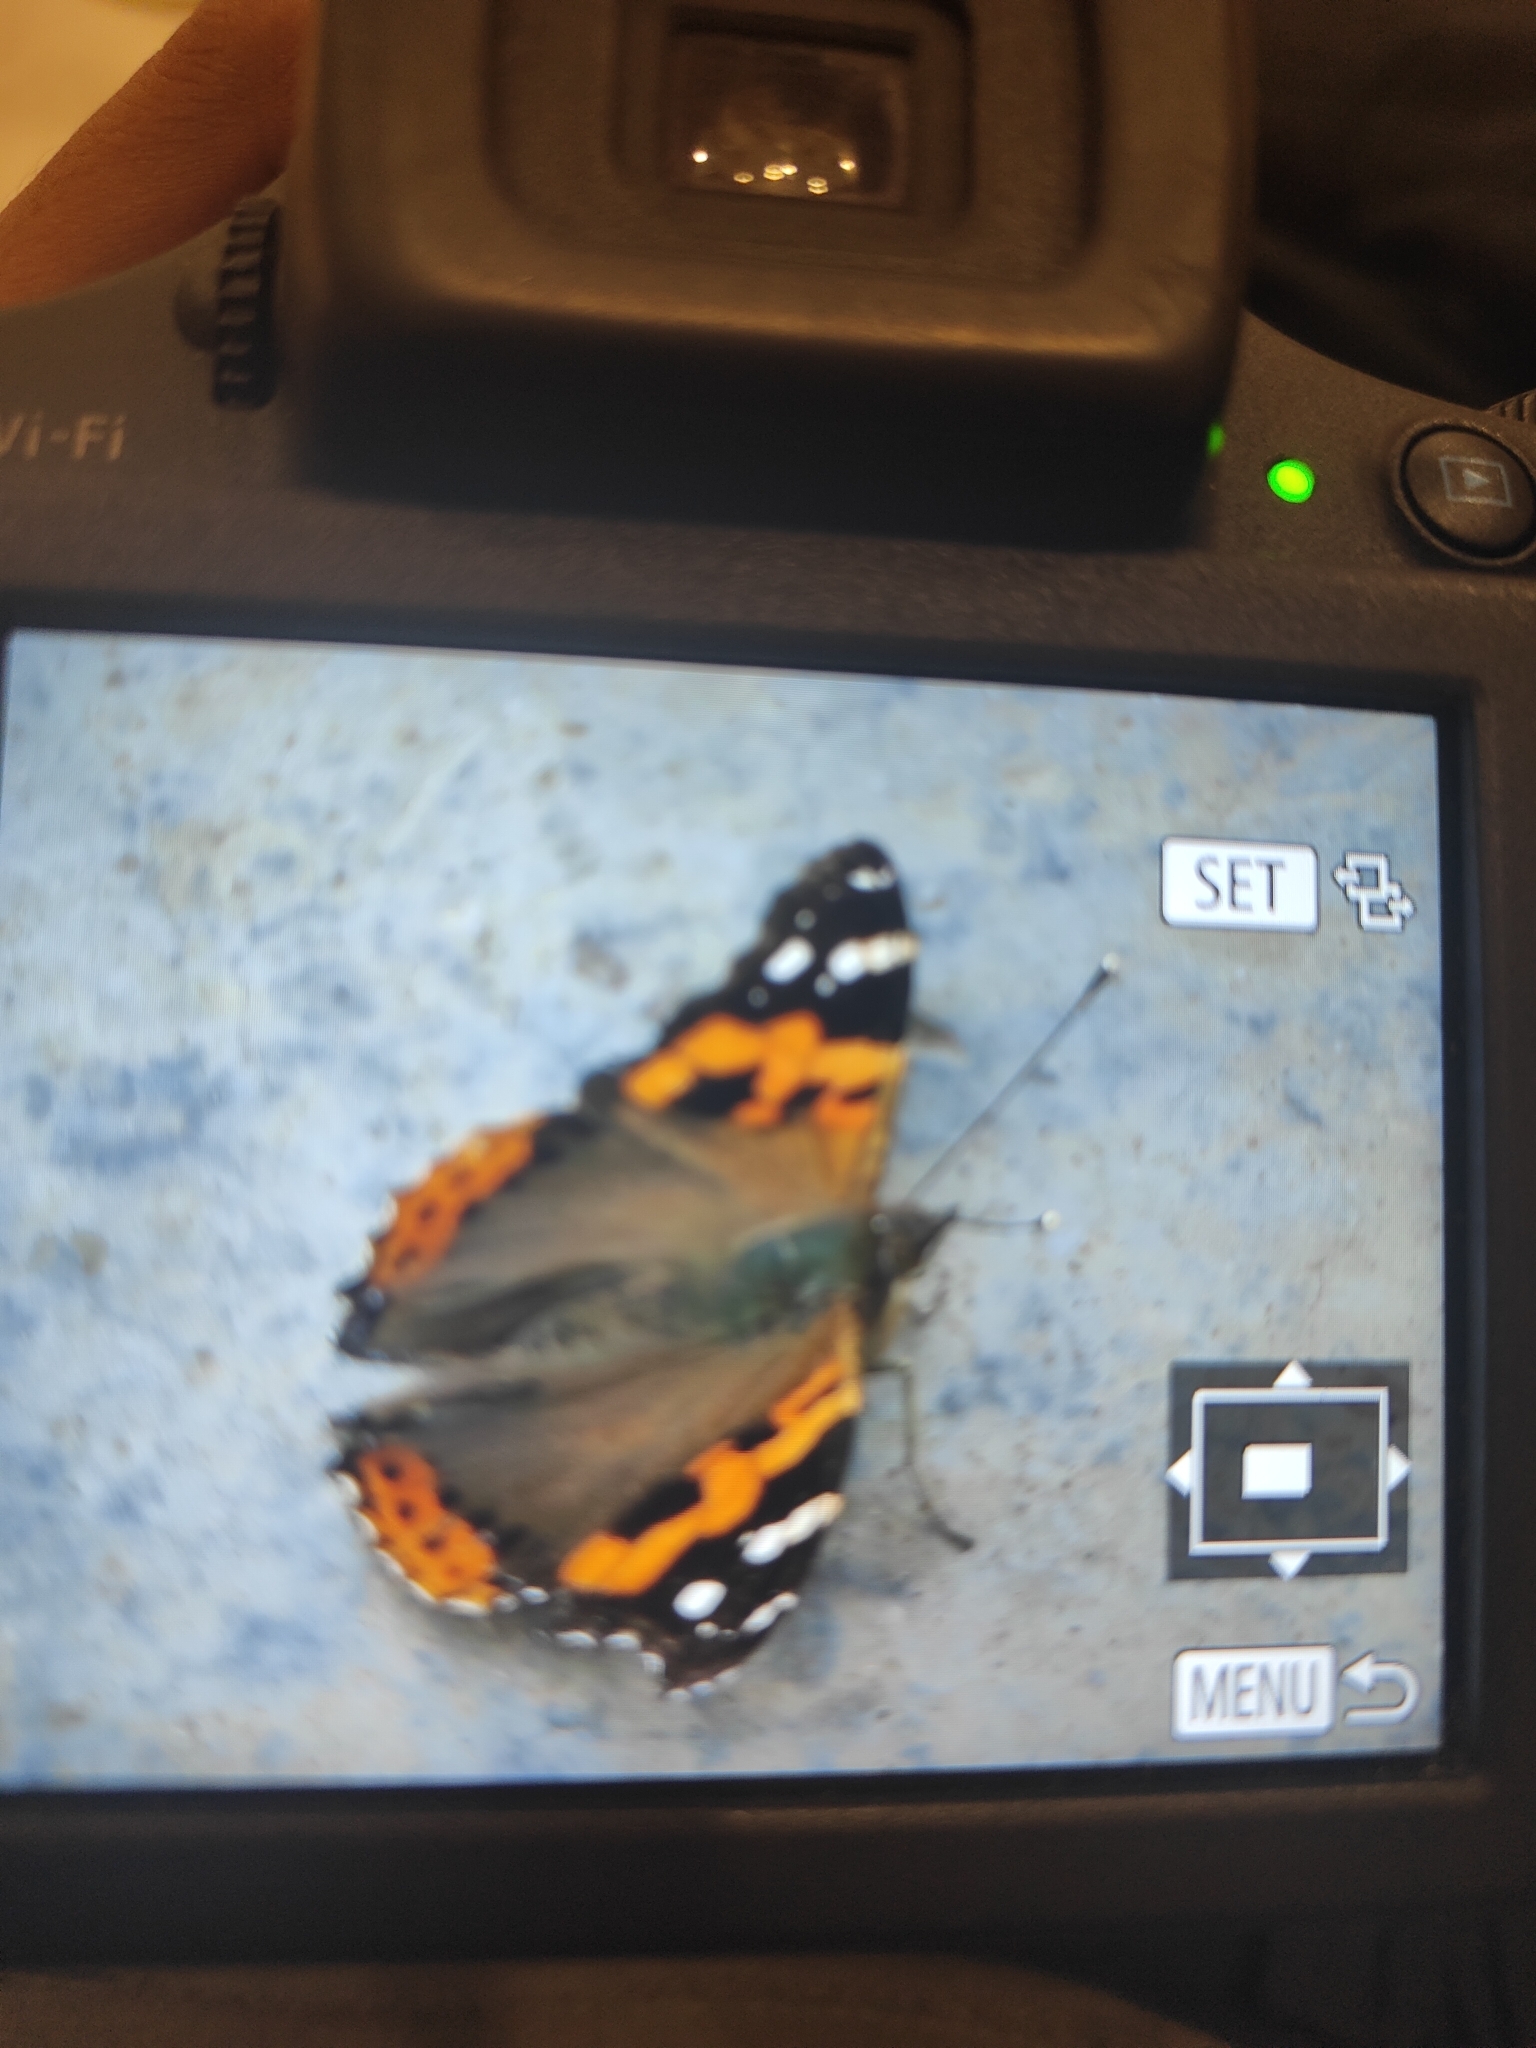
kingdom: Animalia
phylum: Arthropoda
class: Insecta
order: Lepidoptera
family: Nymphalidae
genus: Vanessa
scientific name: Vanessa indica
